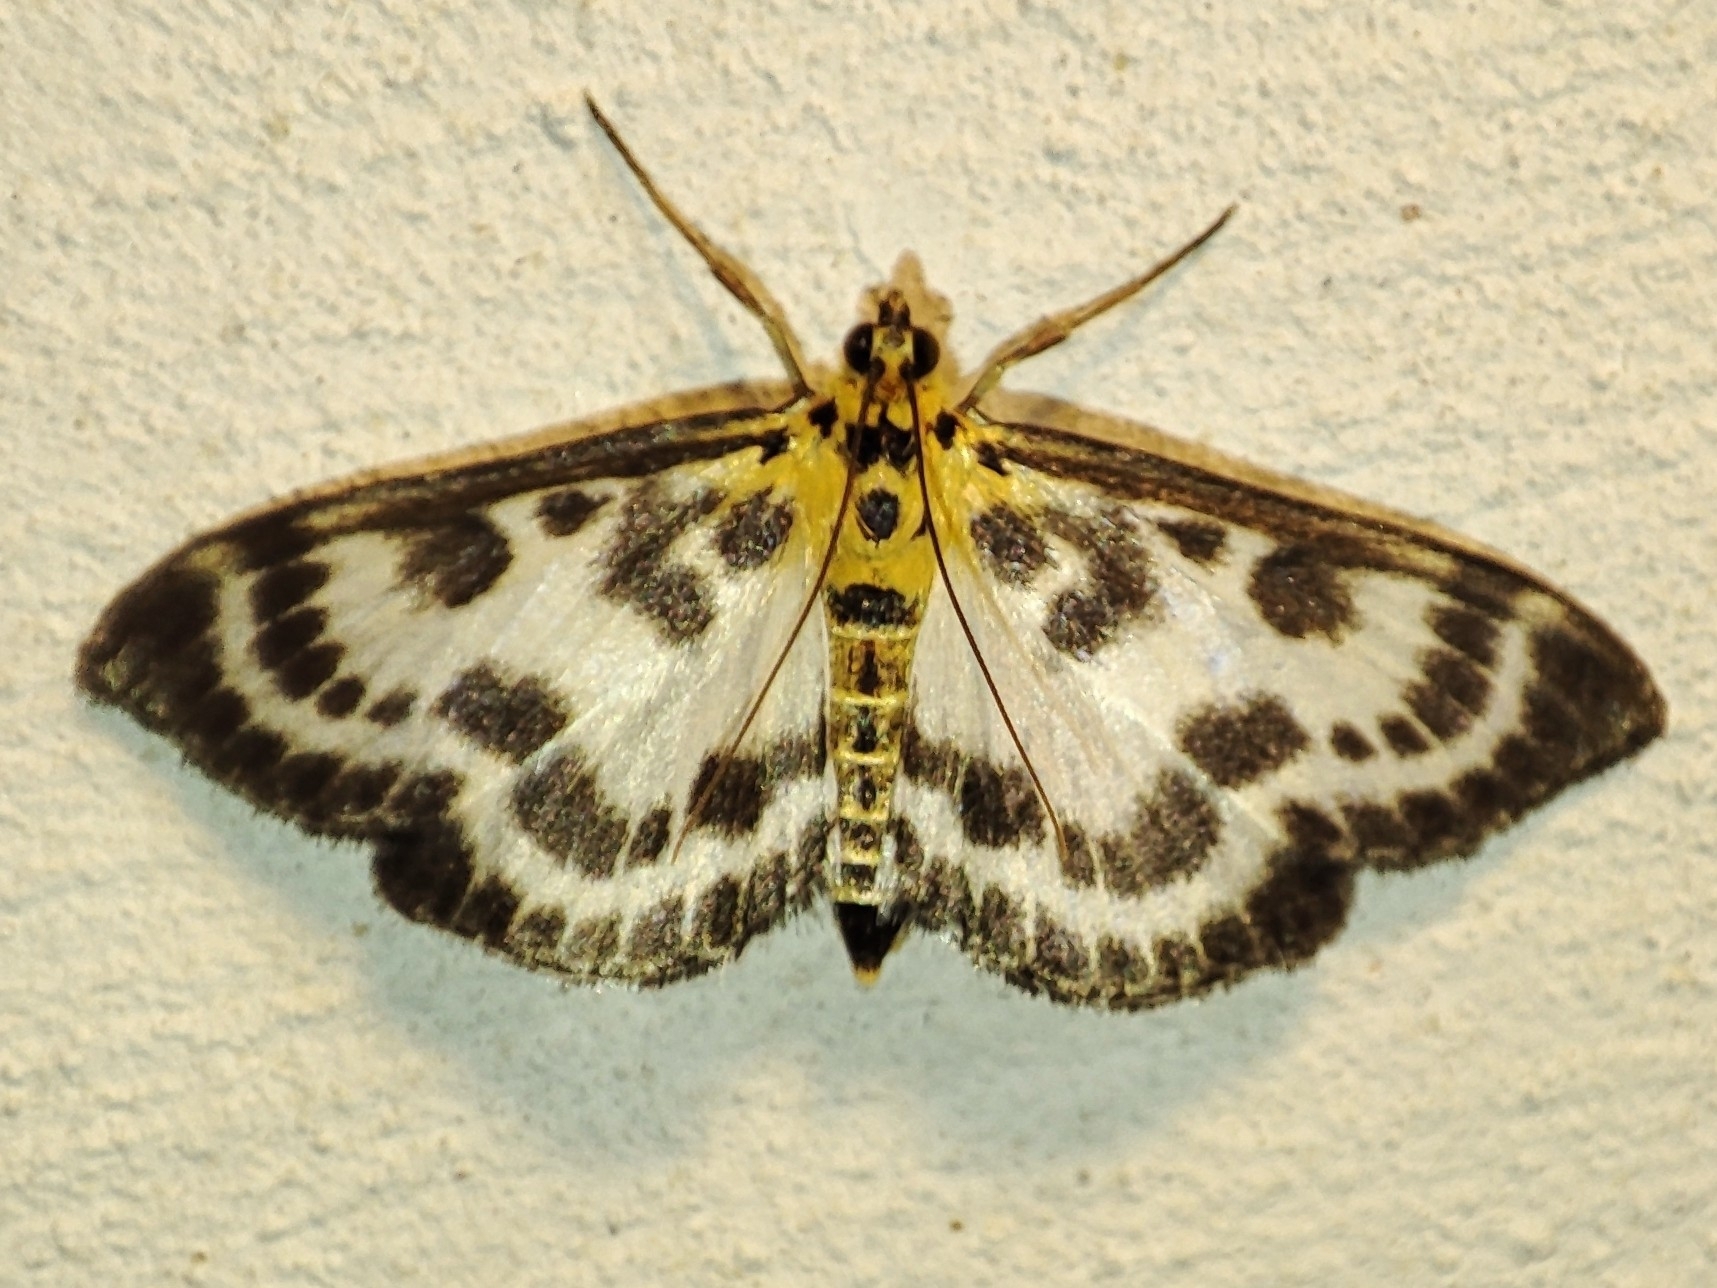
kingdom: Animalia
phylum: Arthropoda
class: Insecta
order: Lepidoptera
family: Crambidae
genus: Anania
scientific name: Anania hortulata
